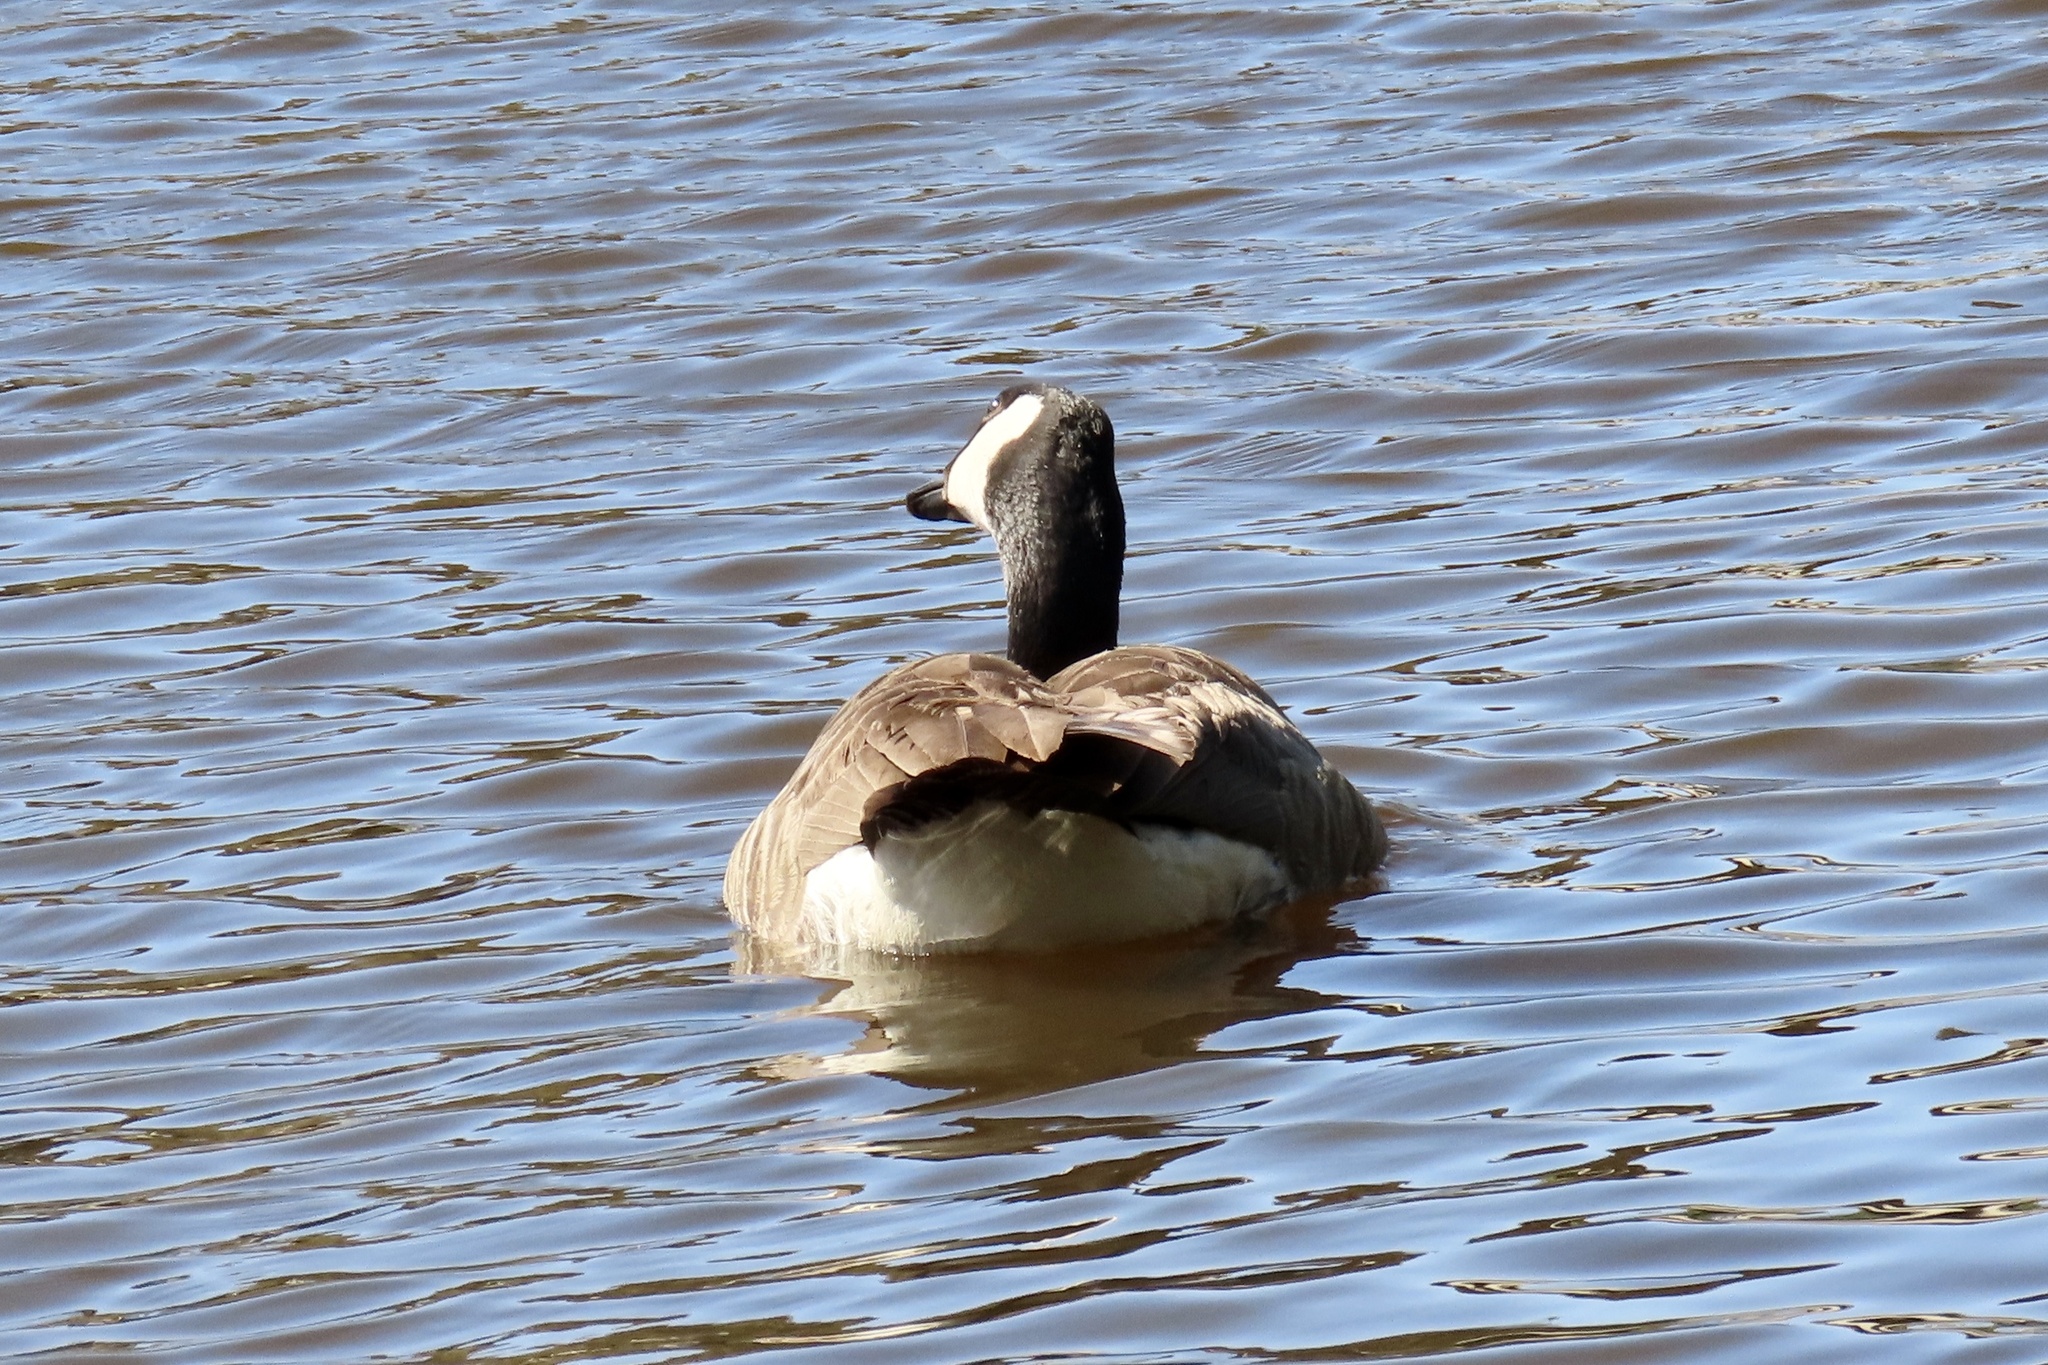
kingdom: Animalia
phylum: Chordata
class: Aves
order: Anseriformes
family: Anatidae
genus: Branta
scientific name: Branta canadensis
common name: Canada goose
